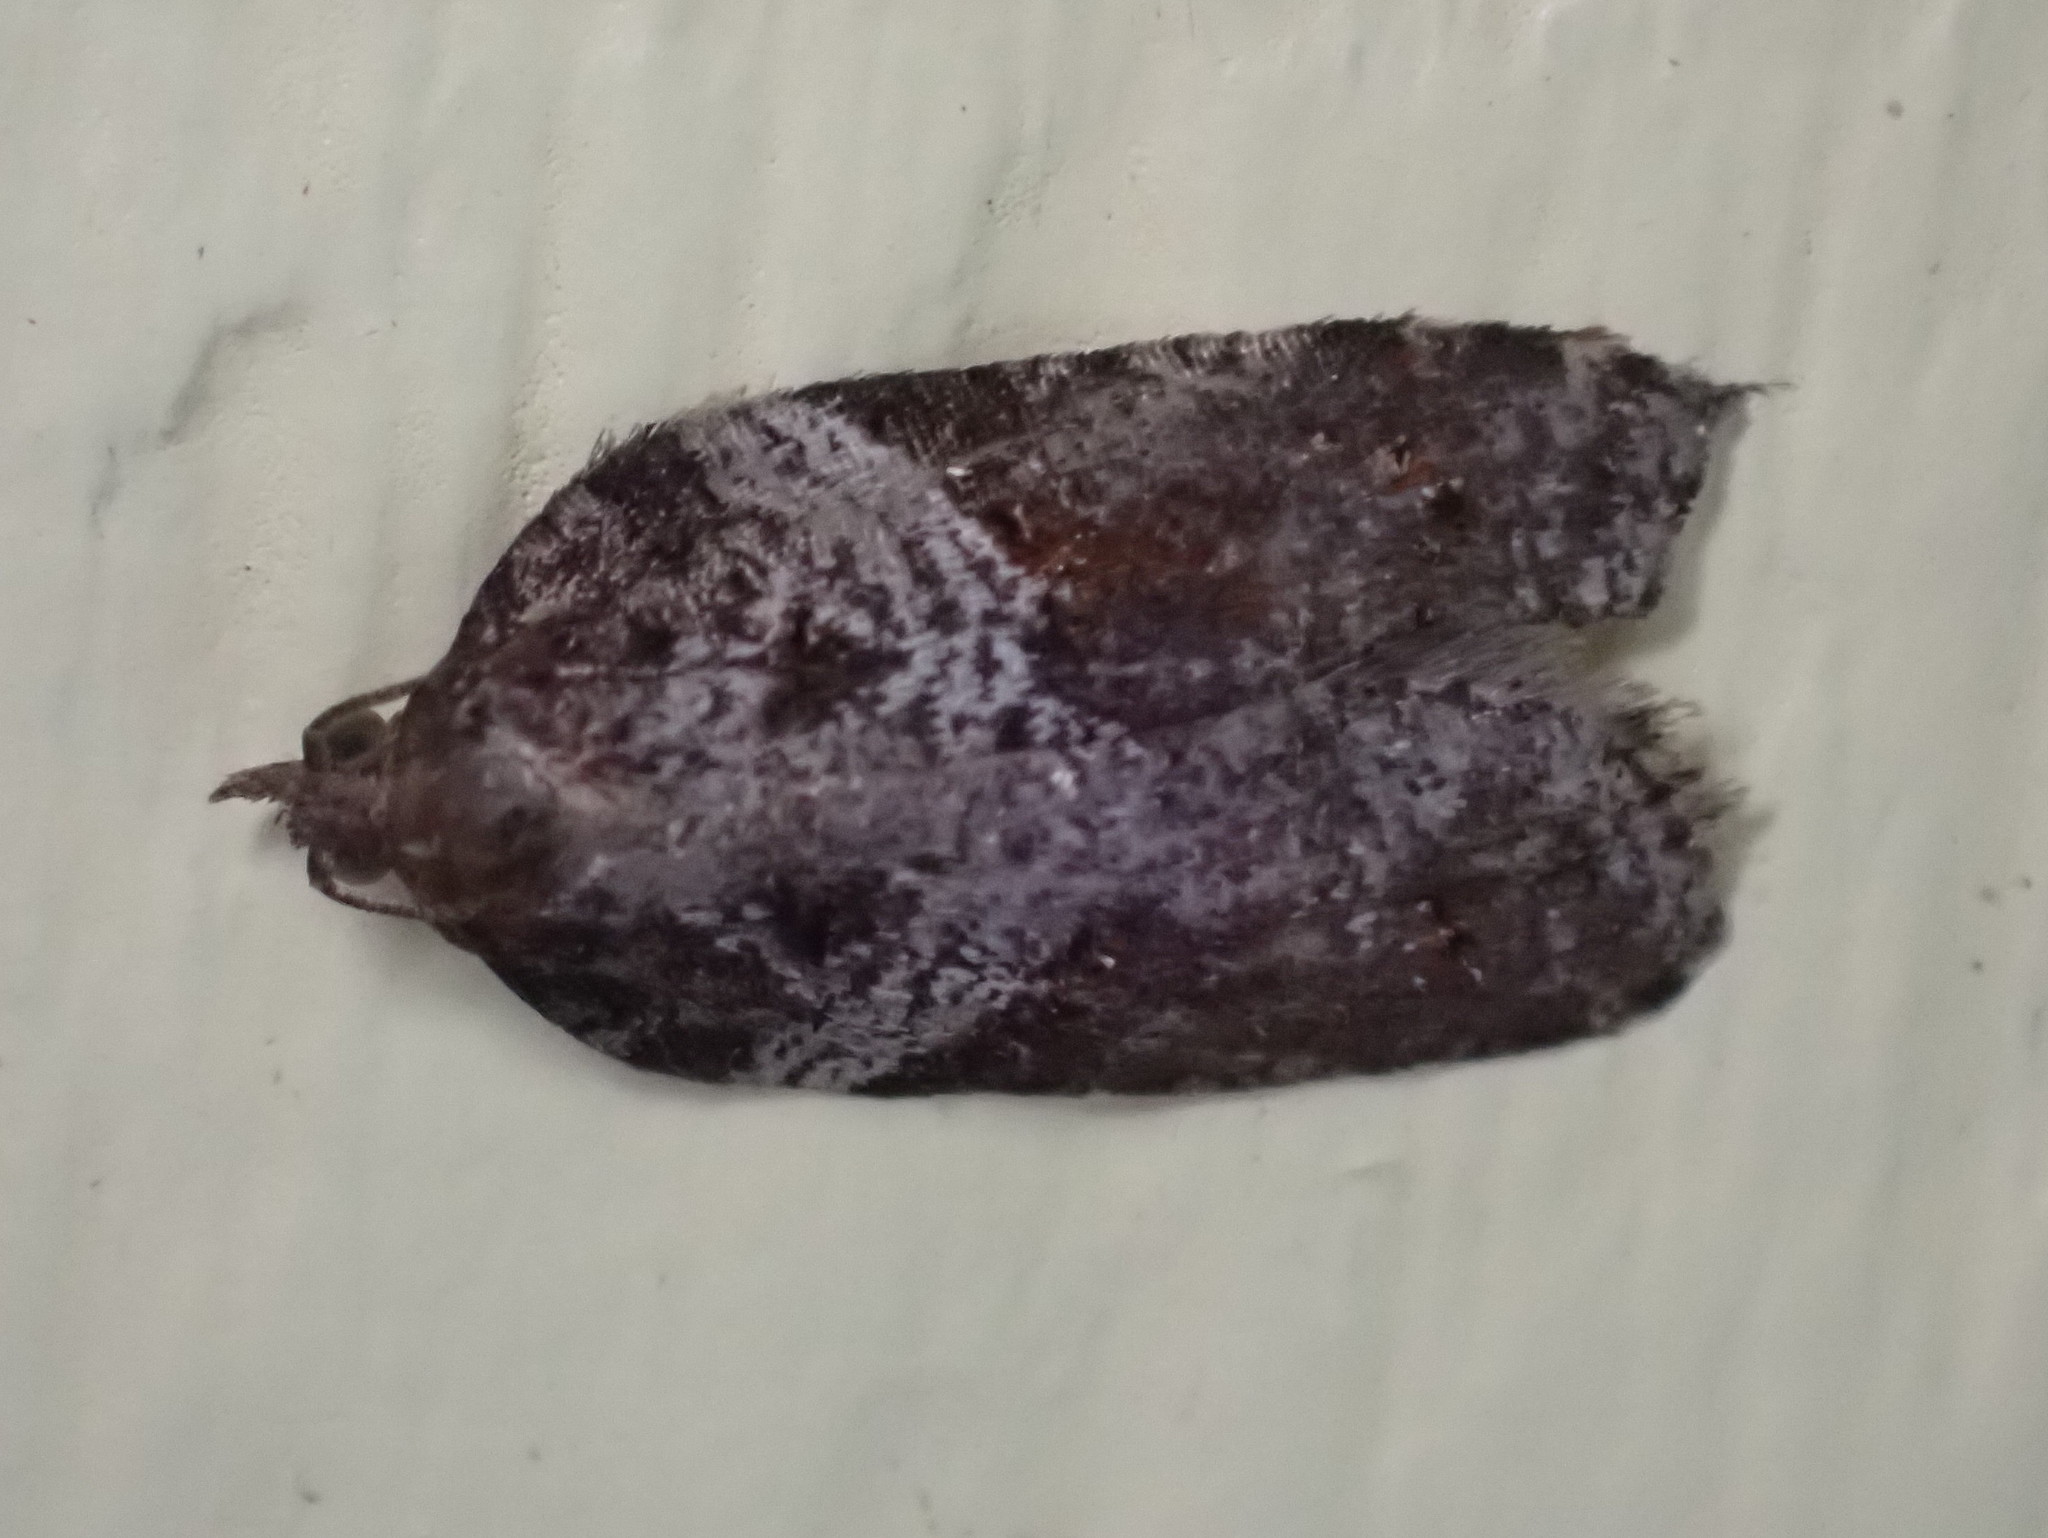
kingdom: Animalia
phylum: Arthropoda
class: Insecta
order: Lepidoptera
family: Tortricidae
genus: Acleris
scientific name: Acleris macdunnoughi
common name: Macdunnough's acleris
